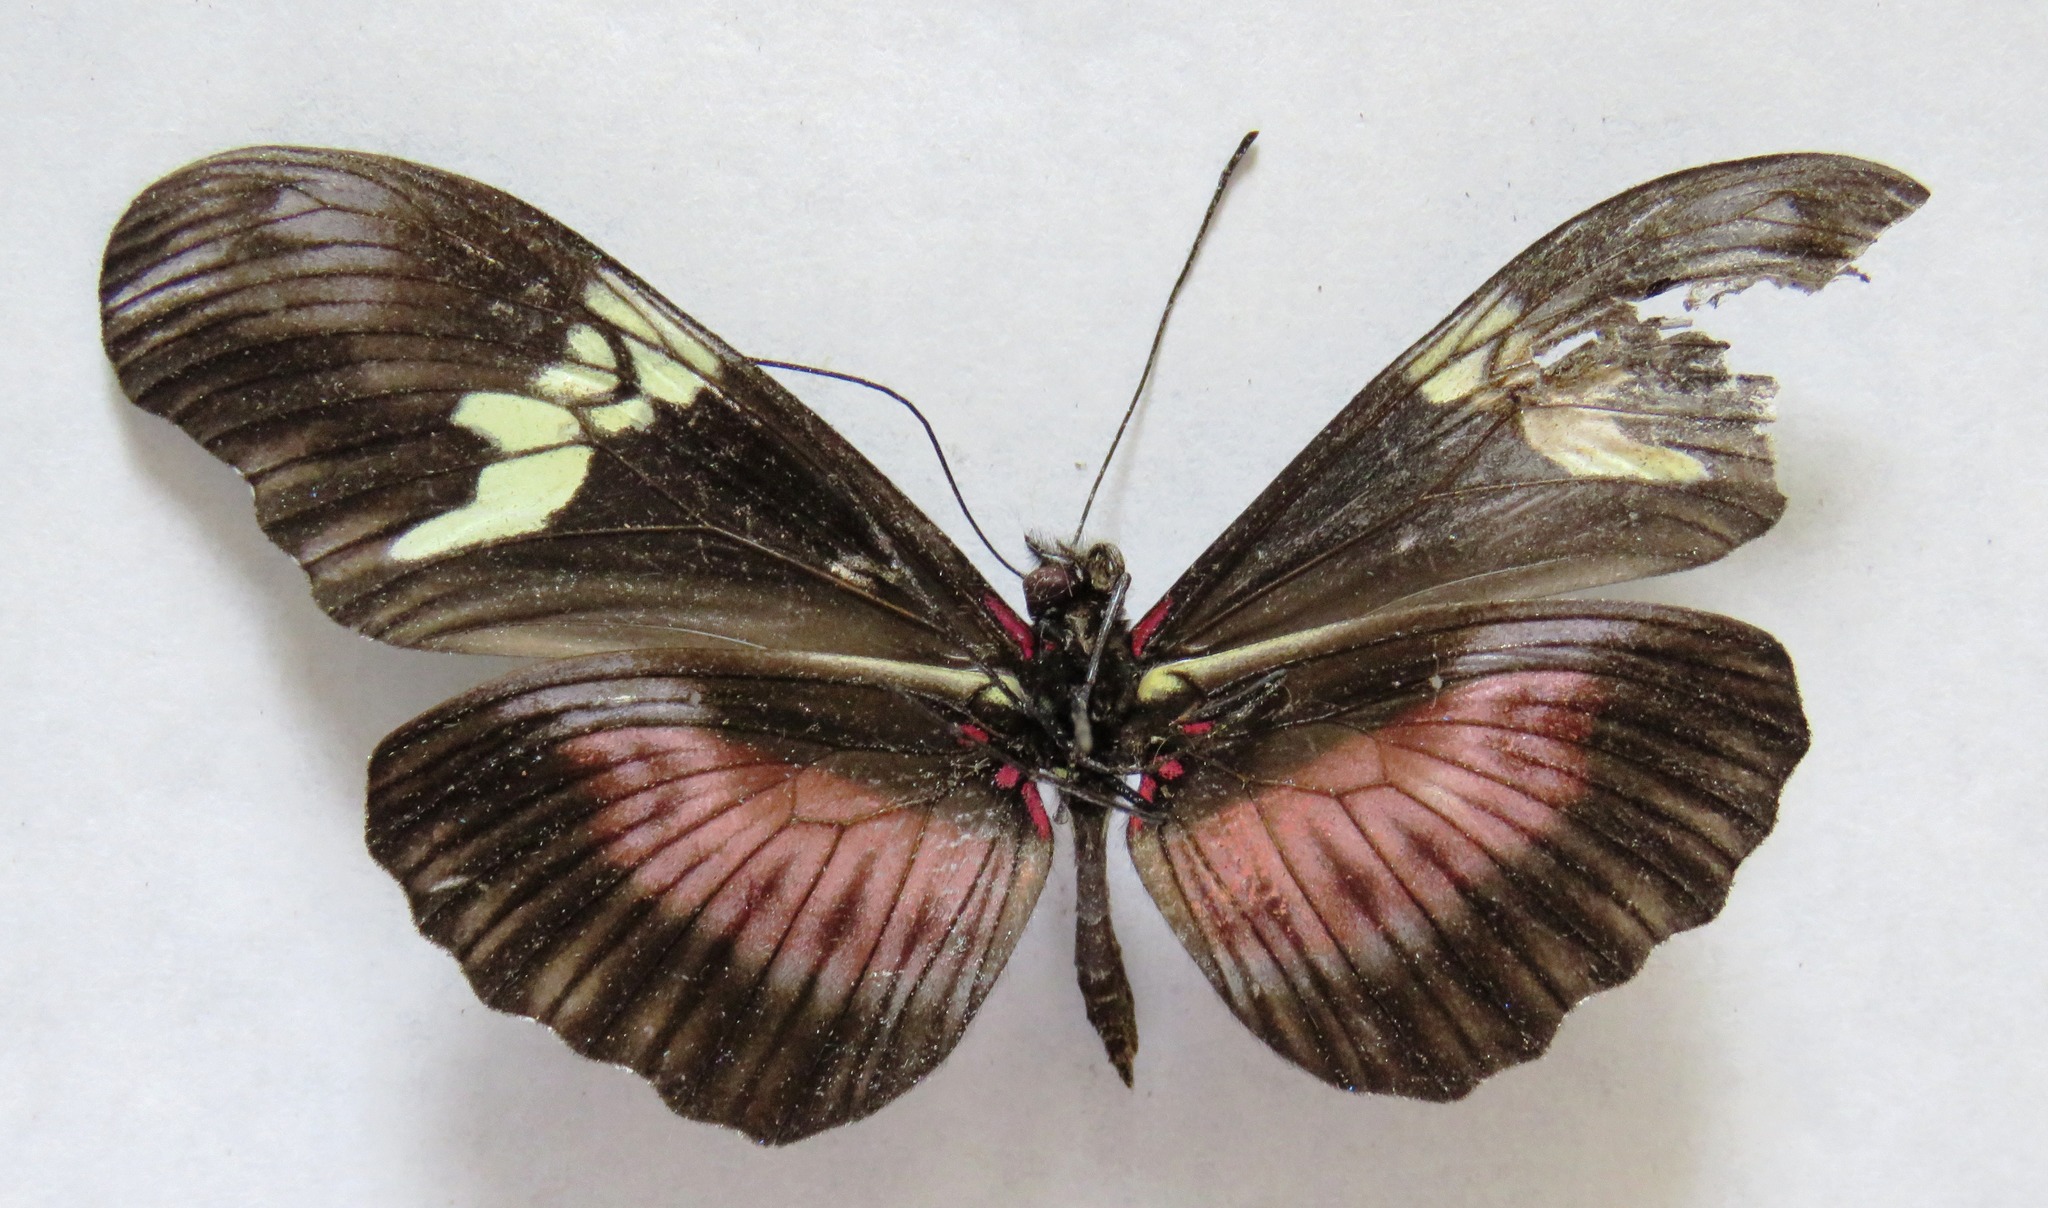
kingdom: Animalia
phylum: Arthropoda
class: Insecta
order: Lepidoptera
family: Nymphalidae
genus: Heliconius
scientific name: Heliconius hortense
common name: Mexican longwing
